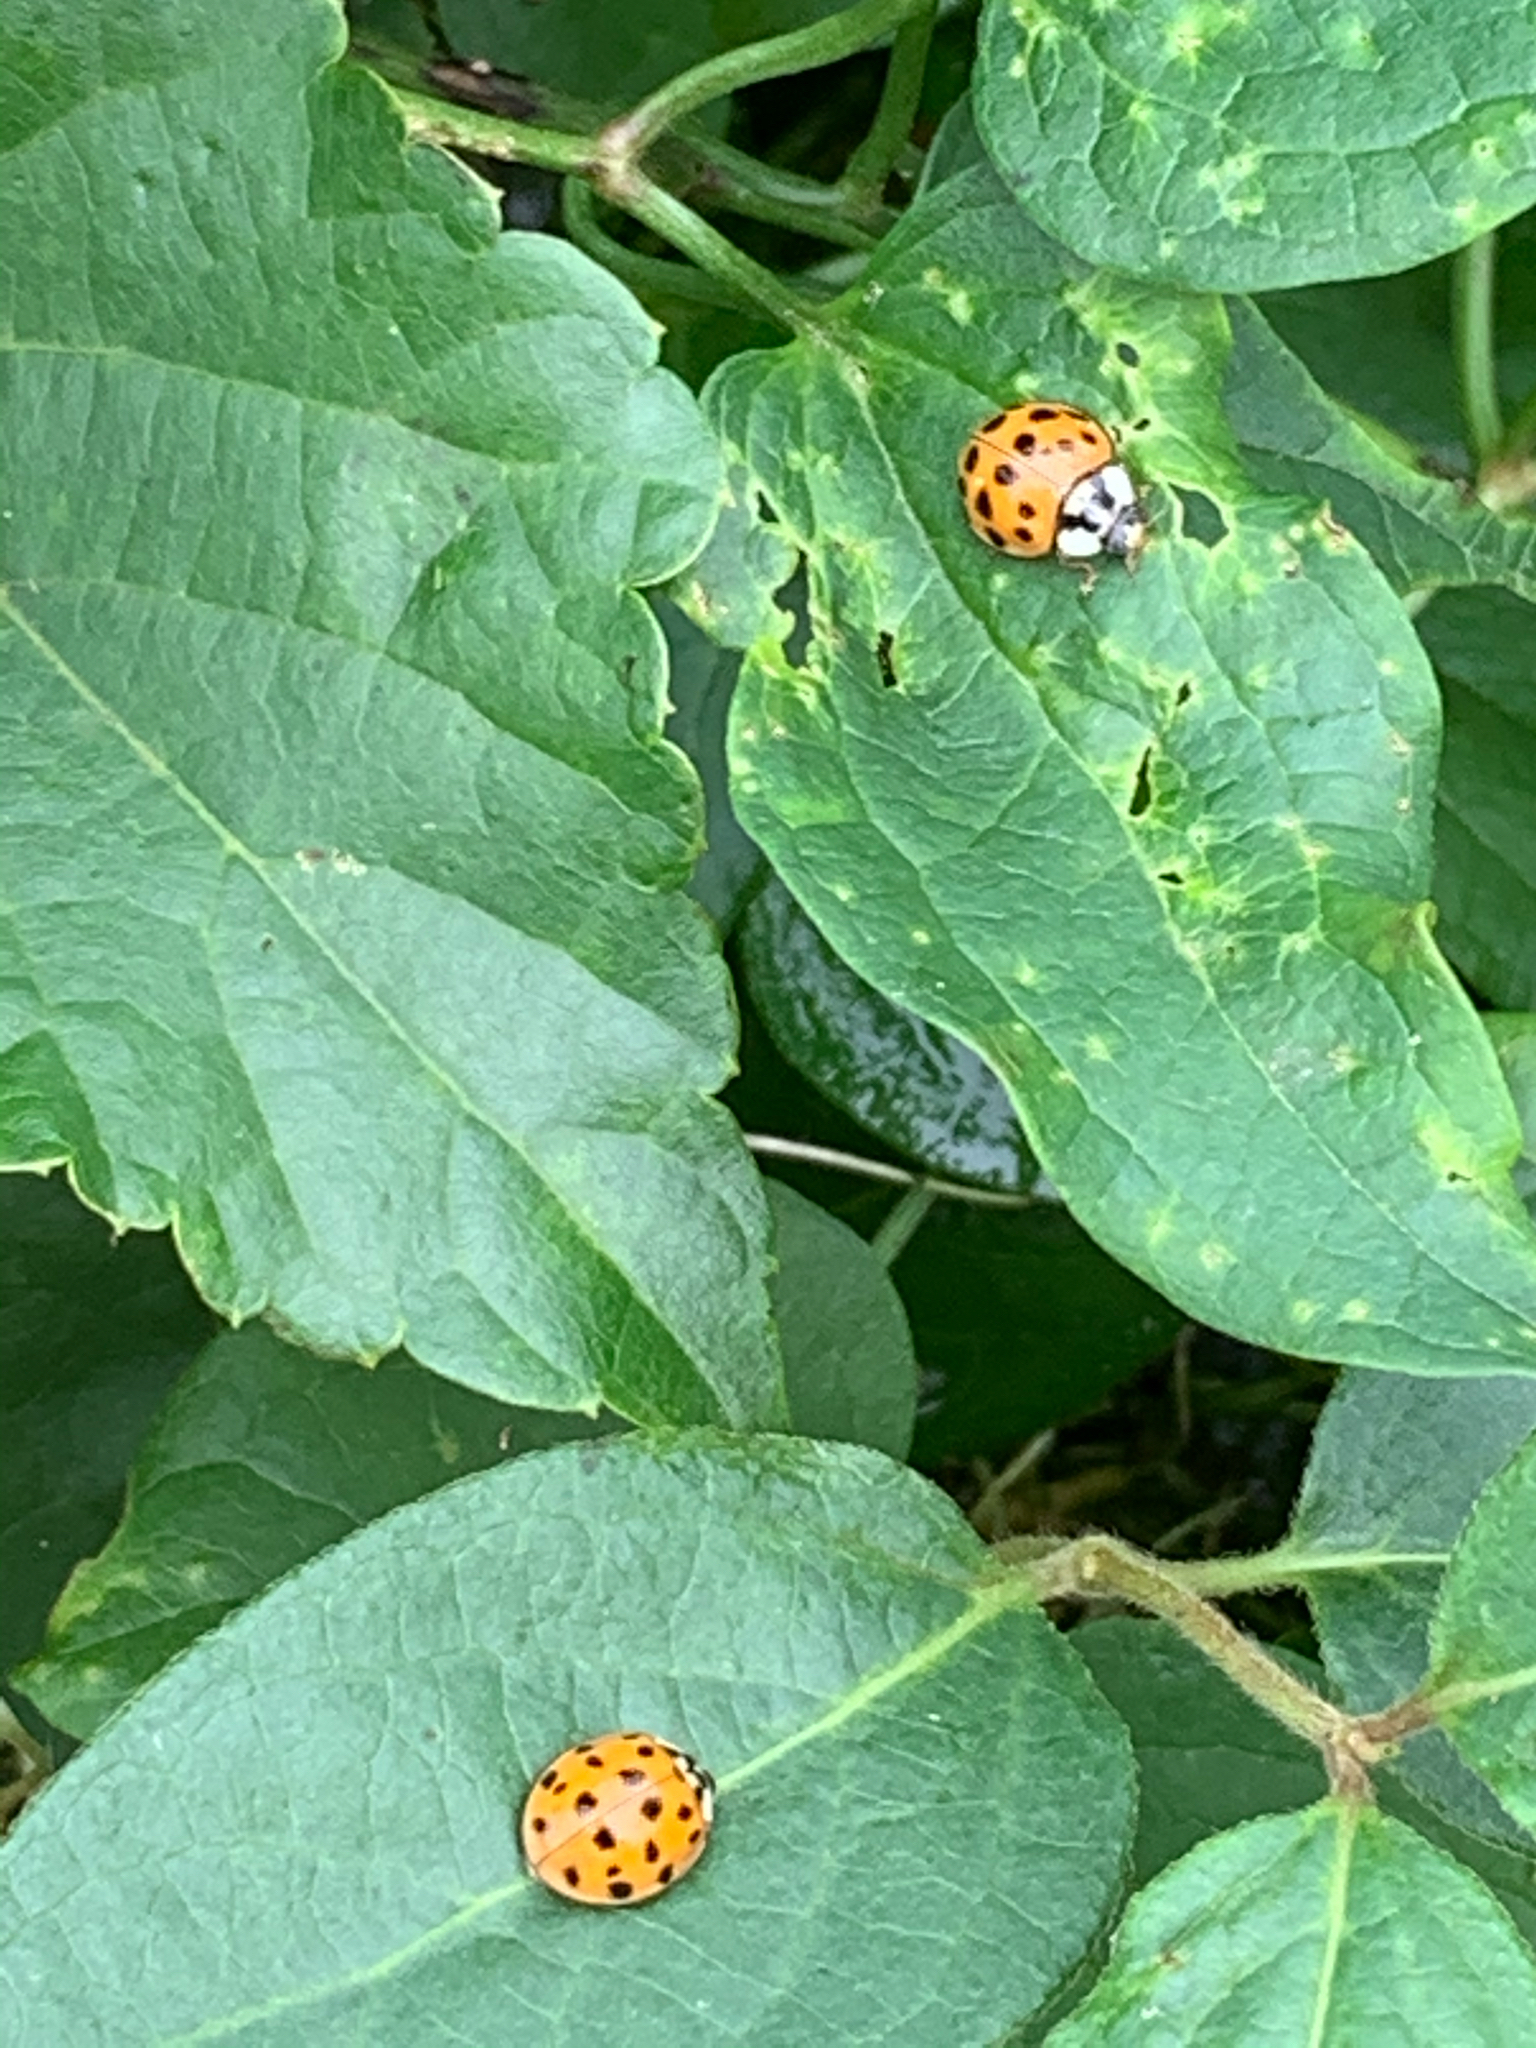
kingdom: Animalia
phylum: Arthropoda
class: Insecta
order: Coleoptera
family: Coccinellidae
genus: Harmonia
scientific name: Harmonia axyridis
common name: Harlequin ladybird
